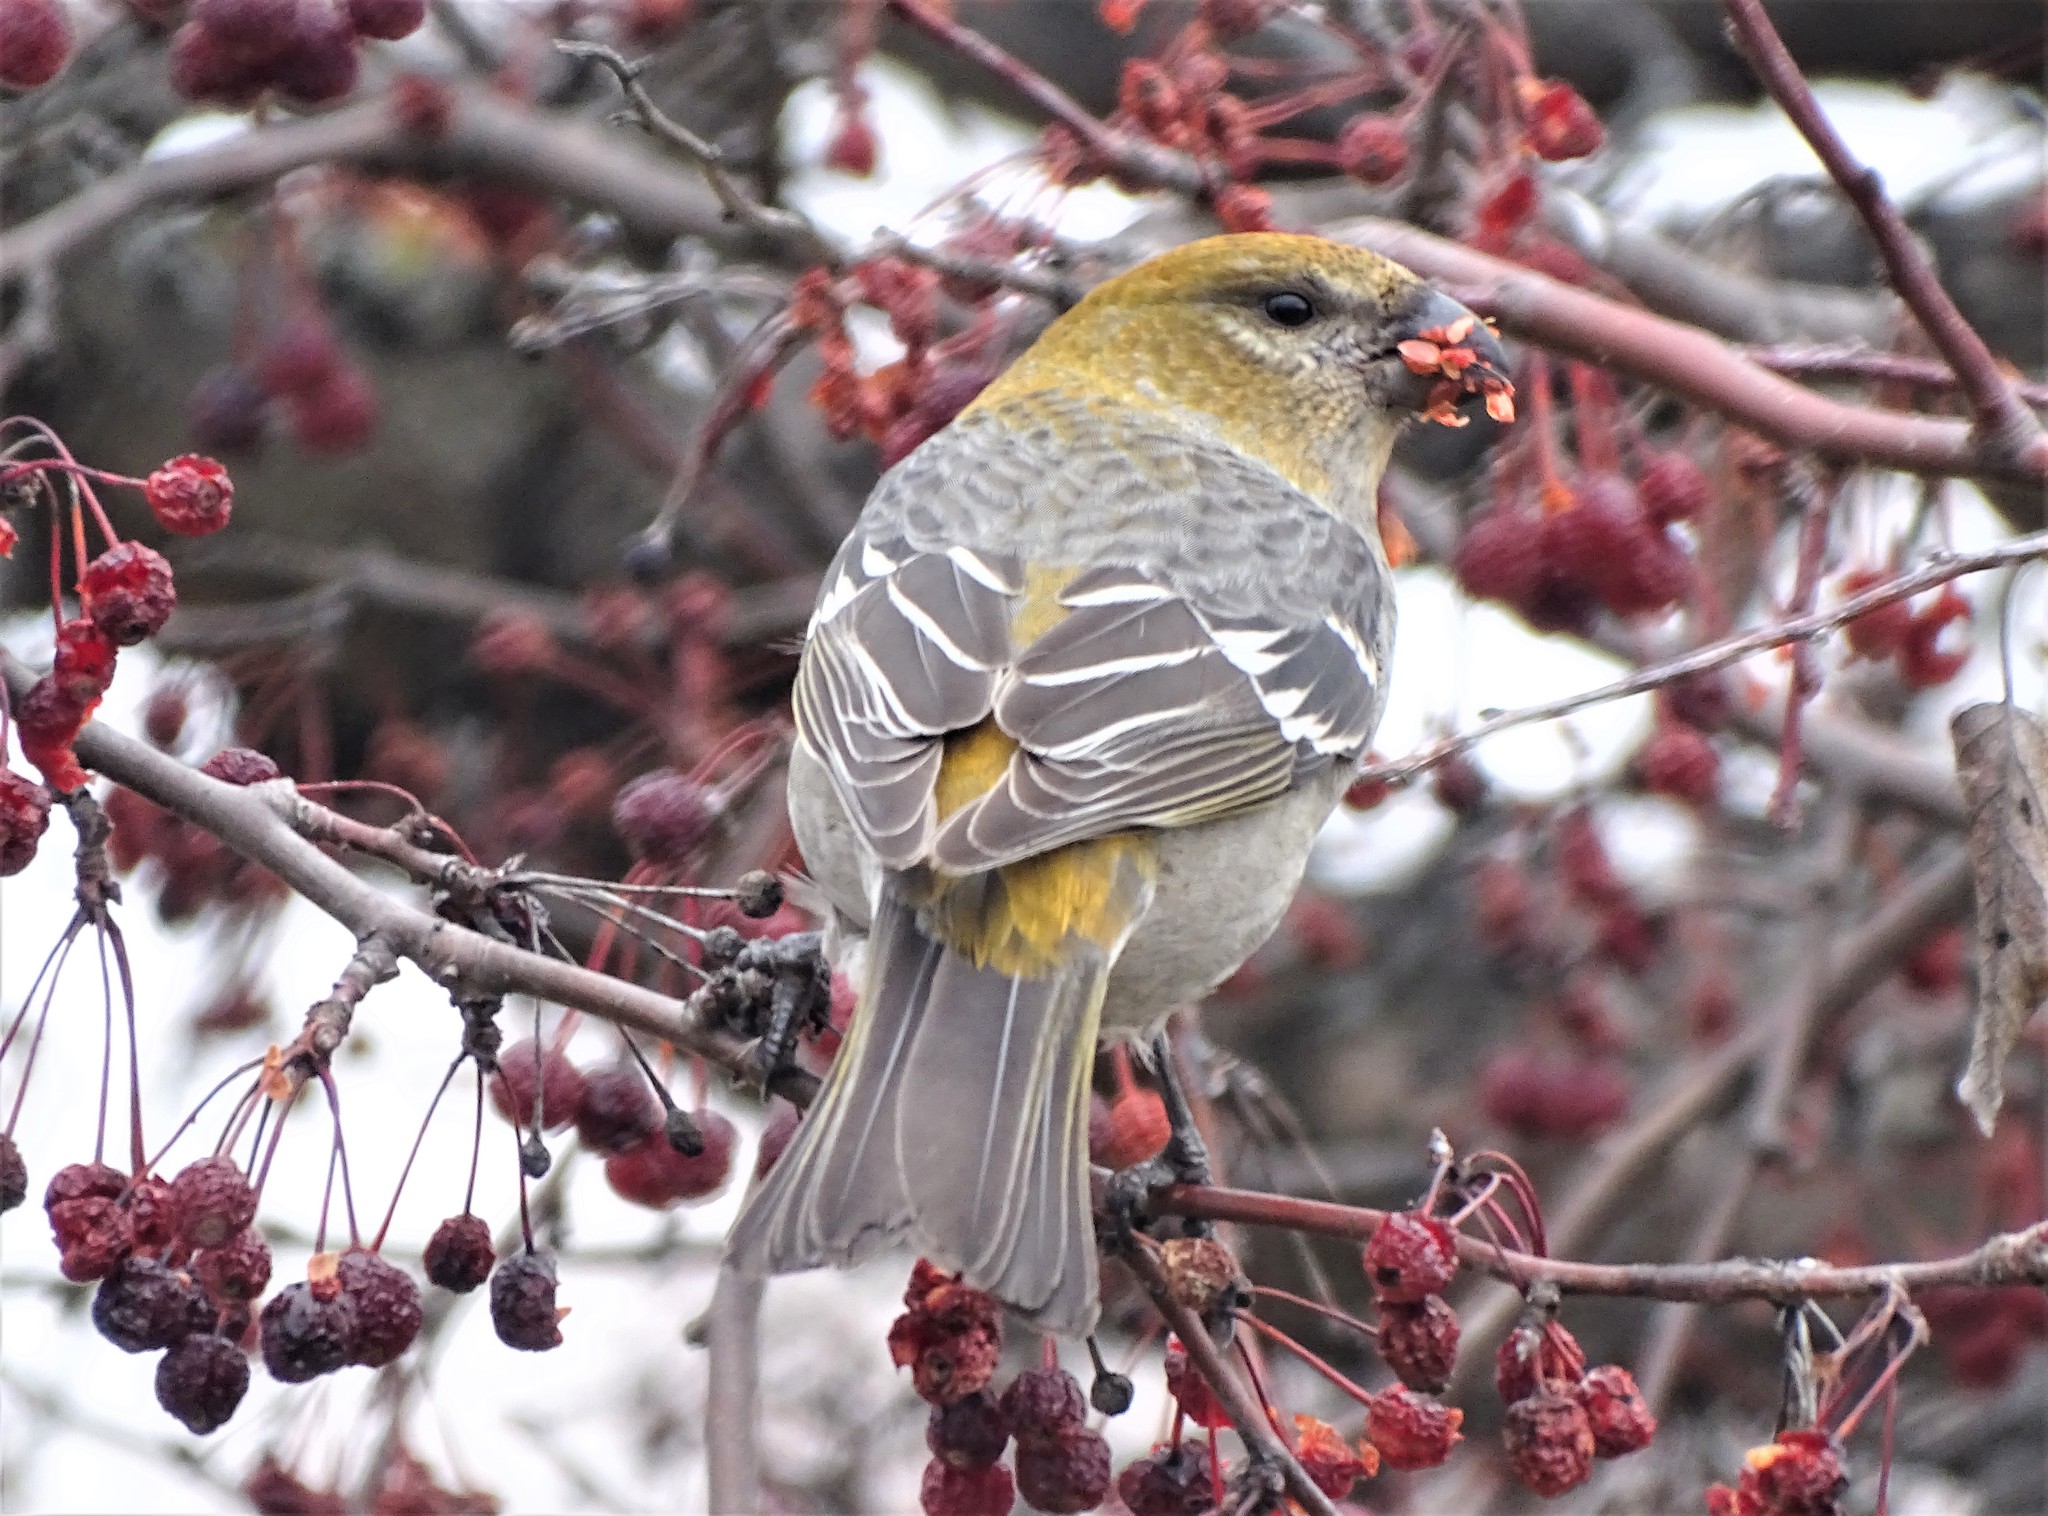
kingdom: Animalia
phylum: Chordata
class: Aves
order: Passeriformes
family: Fringillidae
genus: Pinicola
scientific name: Pinicola enucleator
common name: Pine grosbeak
